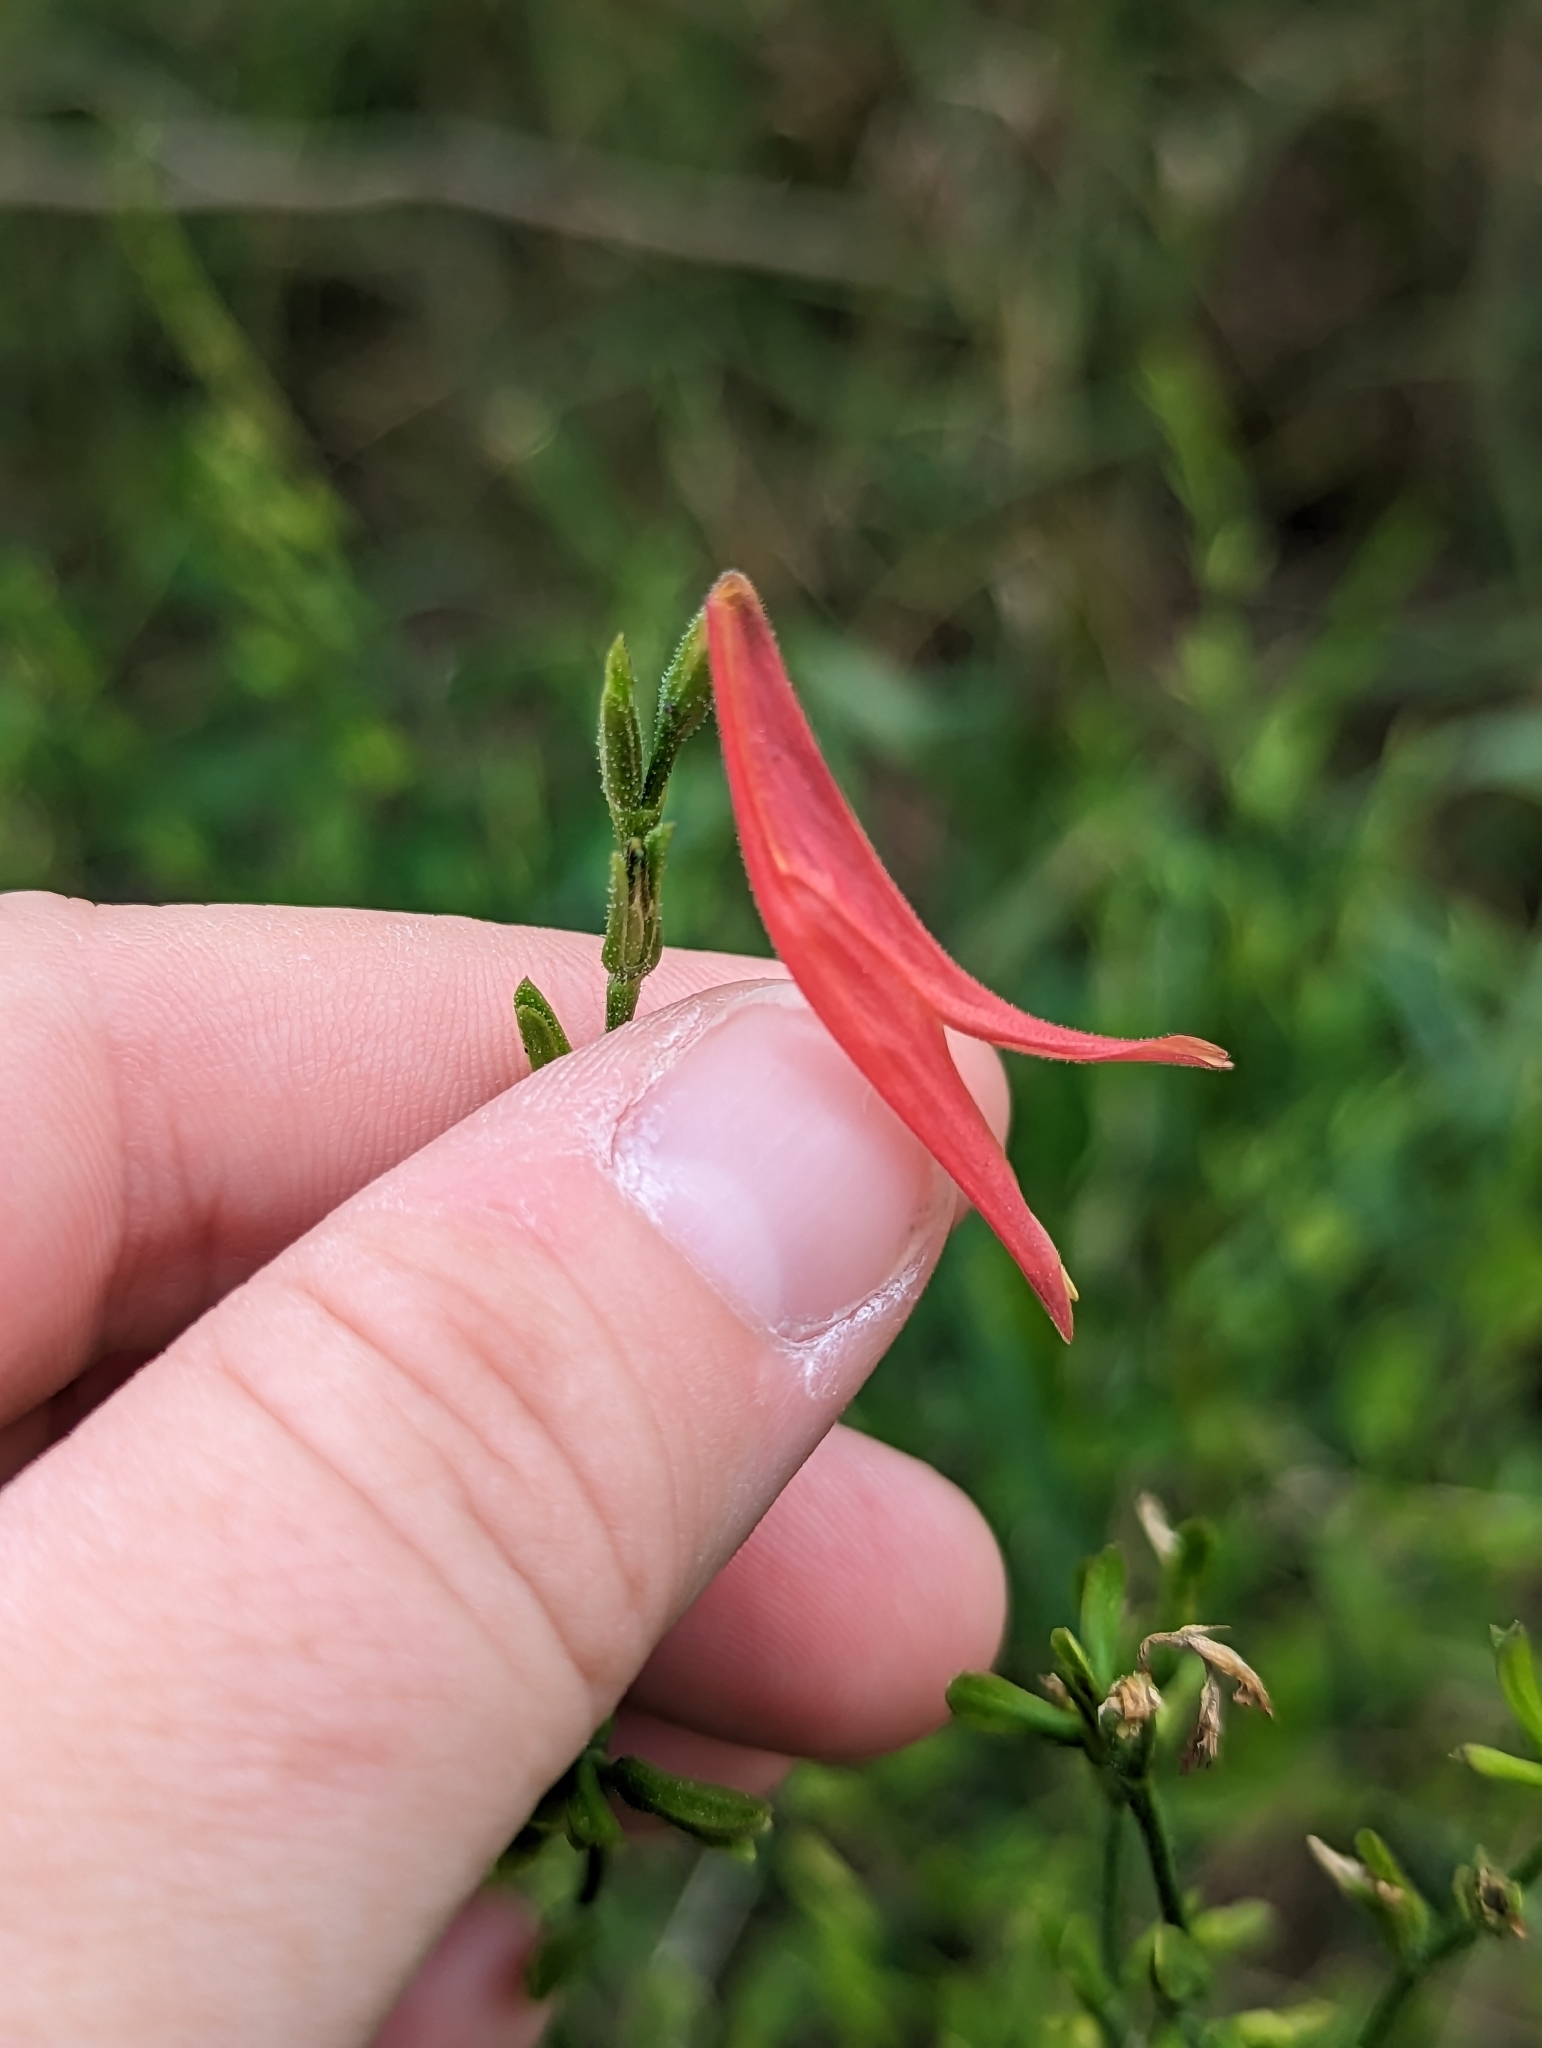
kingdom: Plantae
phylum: Tracheophyta
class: Magnoliopsida
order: Lamiales
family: Acanthaceae
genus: Dicliptera
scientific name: Dicliptera sexangularis
